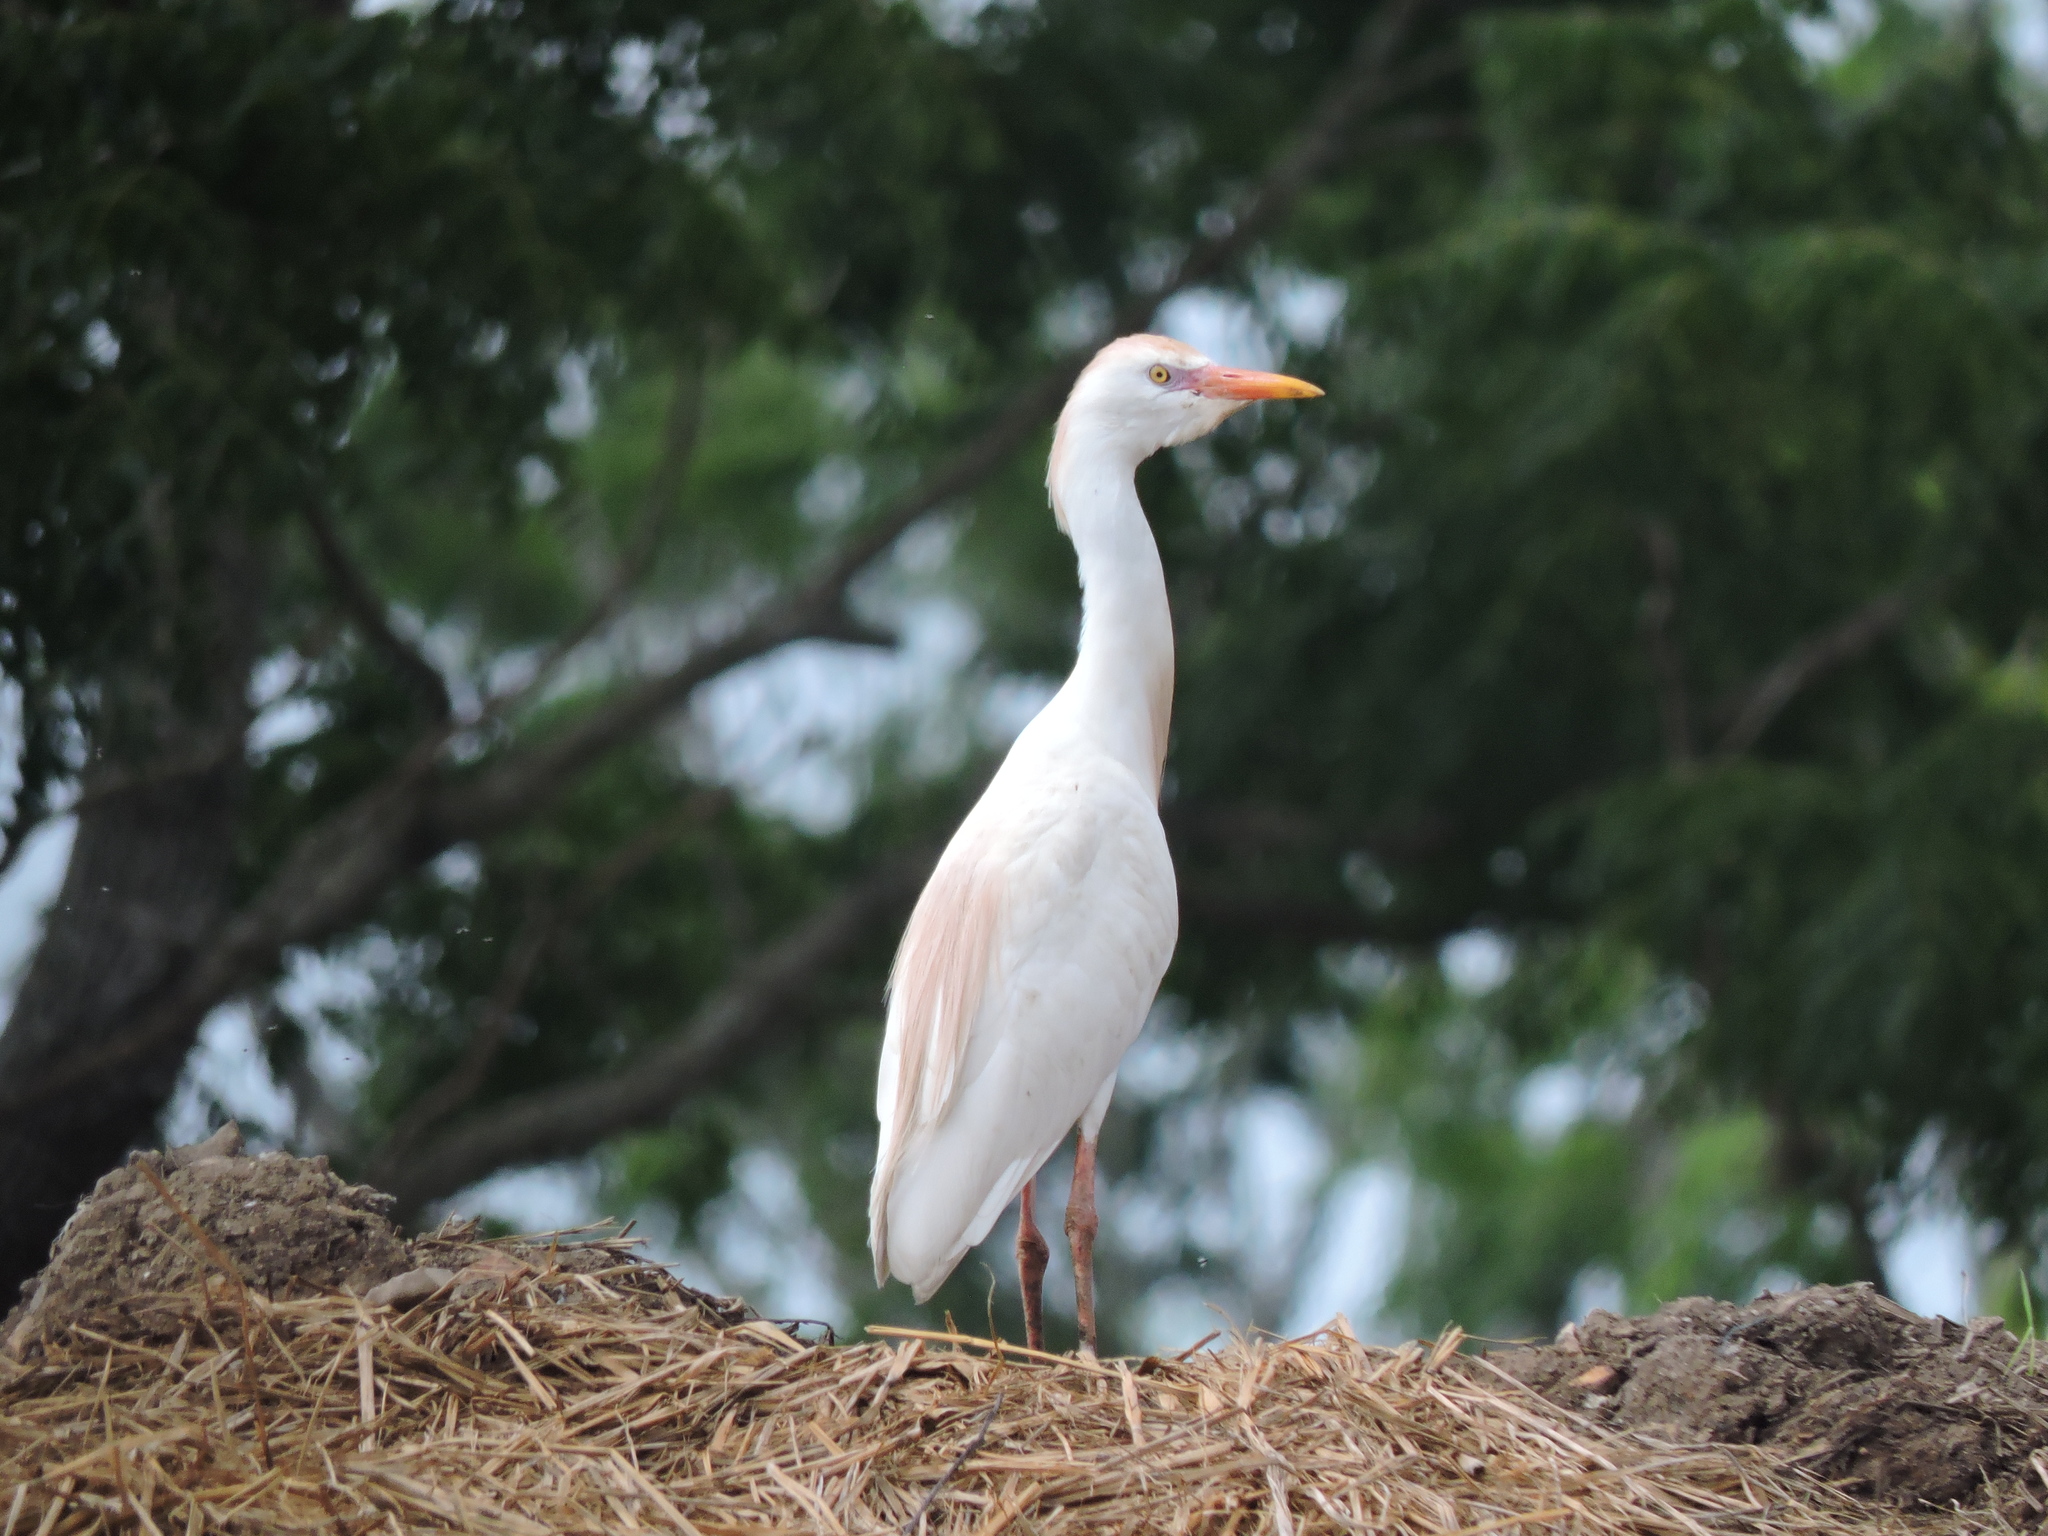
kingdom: Animalia
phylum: Chordata
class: Aves
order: Pelecaniformes
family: Ardeidae
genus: Bubulcus
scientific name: Bubulcus ibis
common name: Cattle egret
